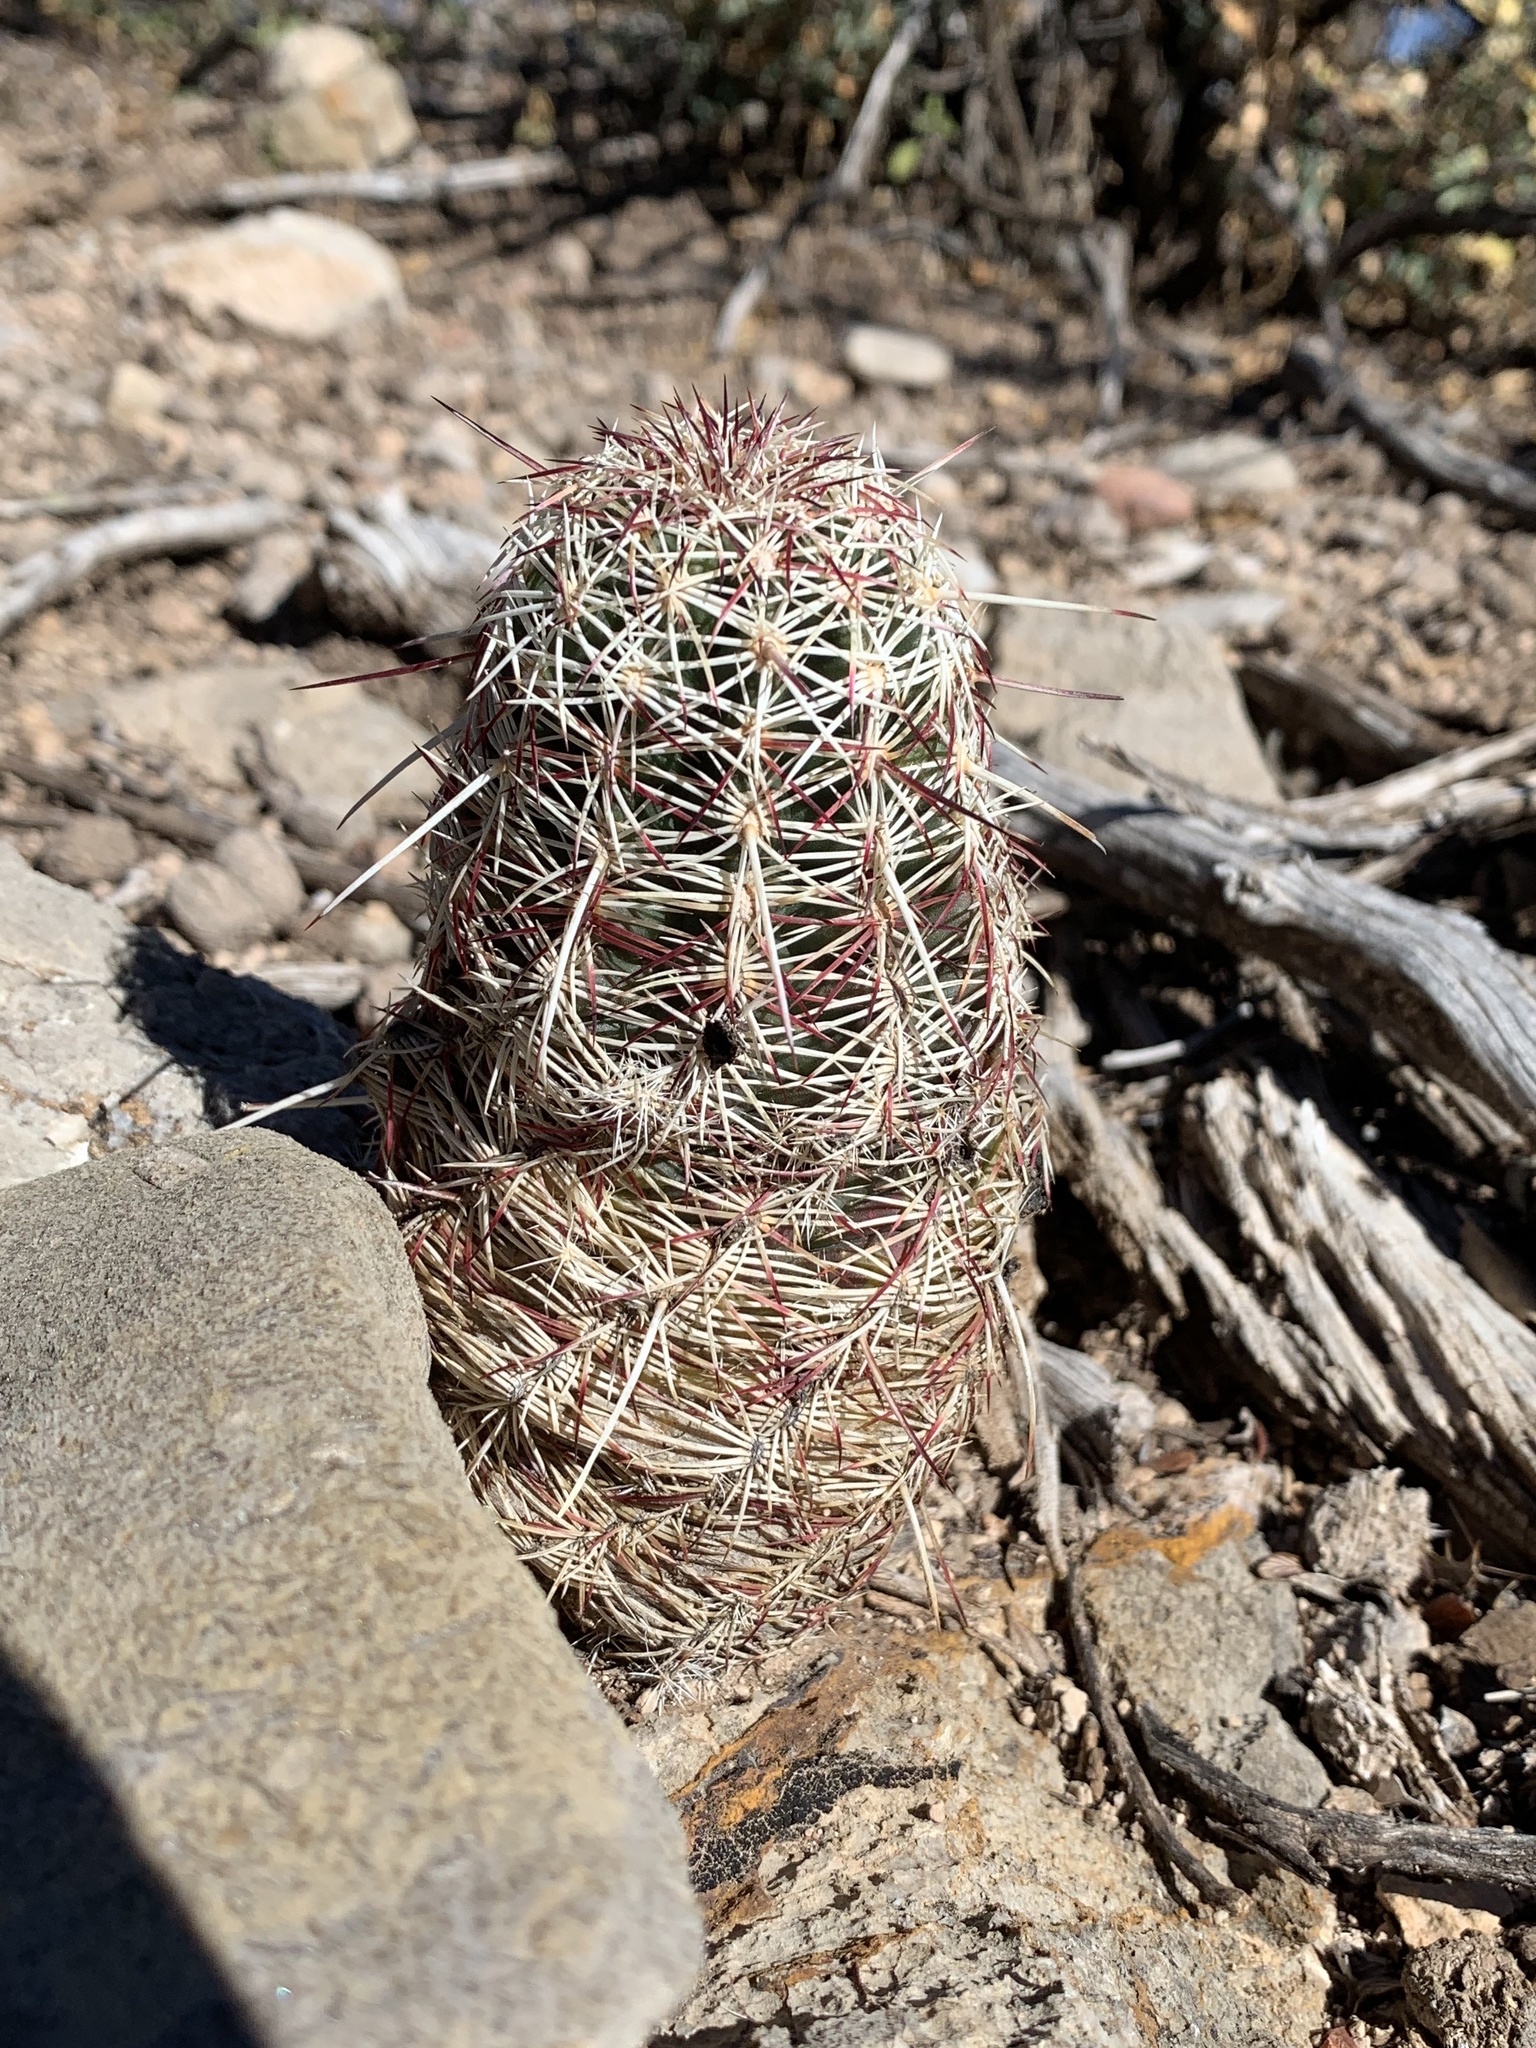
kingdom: Plantae
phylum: Tracheophyta
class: Magnoliopsida
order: Caryophyllales
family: Cactaceae
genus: Echinocereus
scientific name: Echinocereus viridiflorus
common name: Nylon hedgehog cactus
